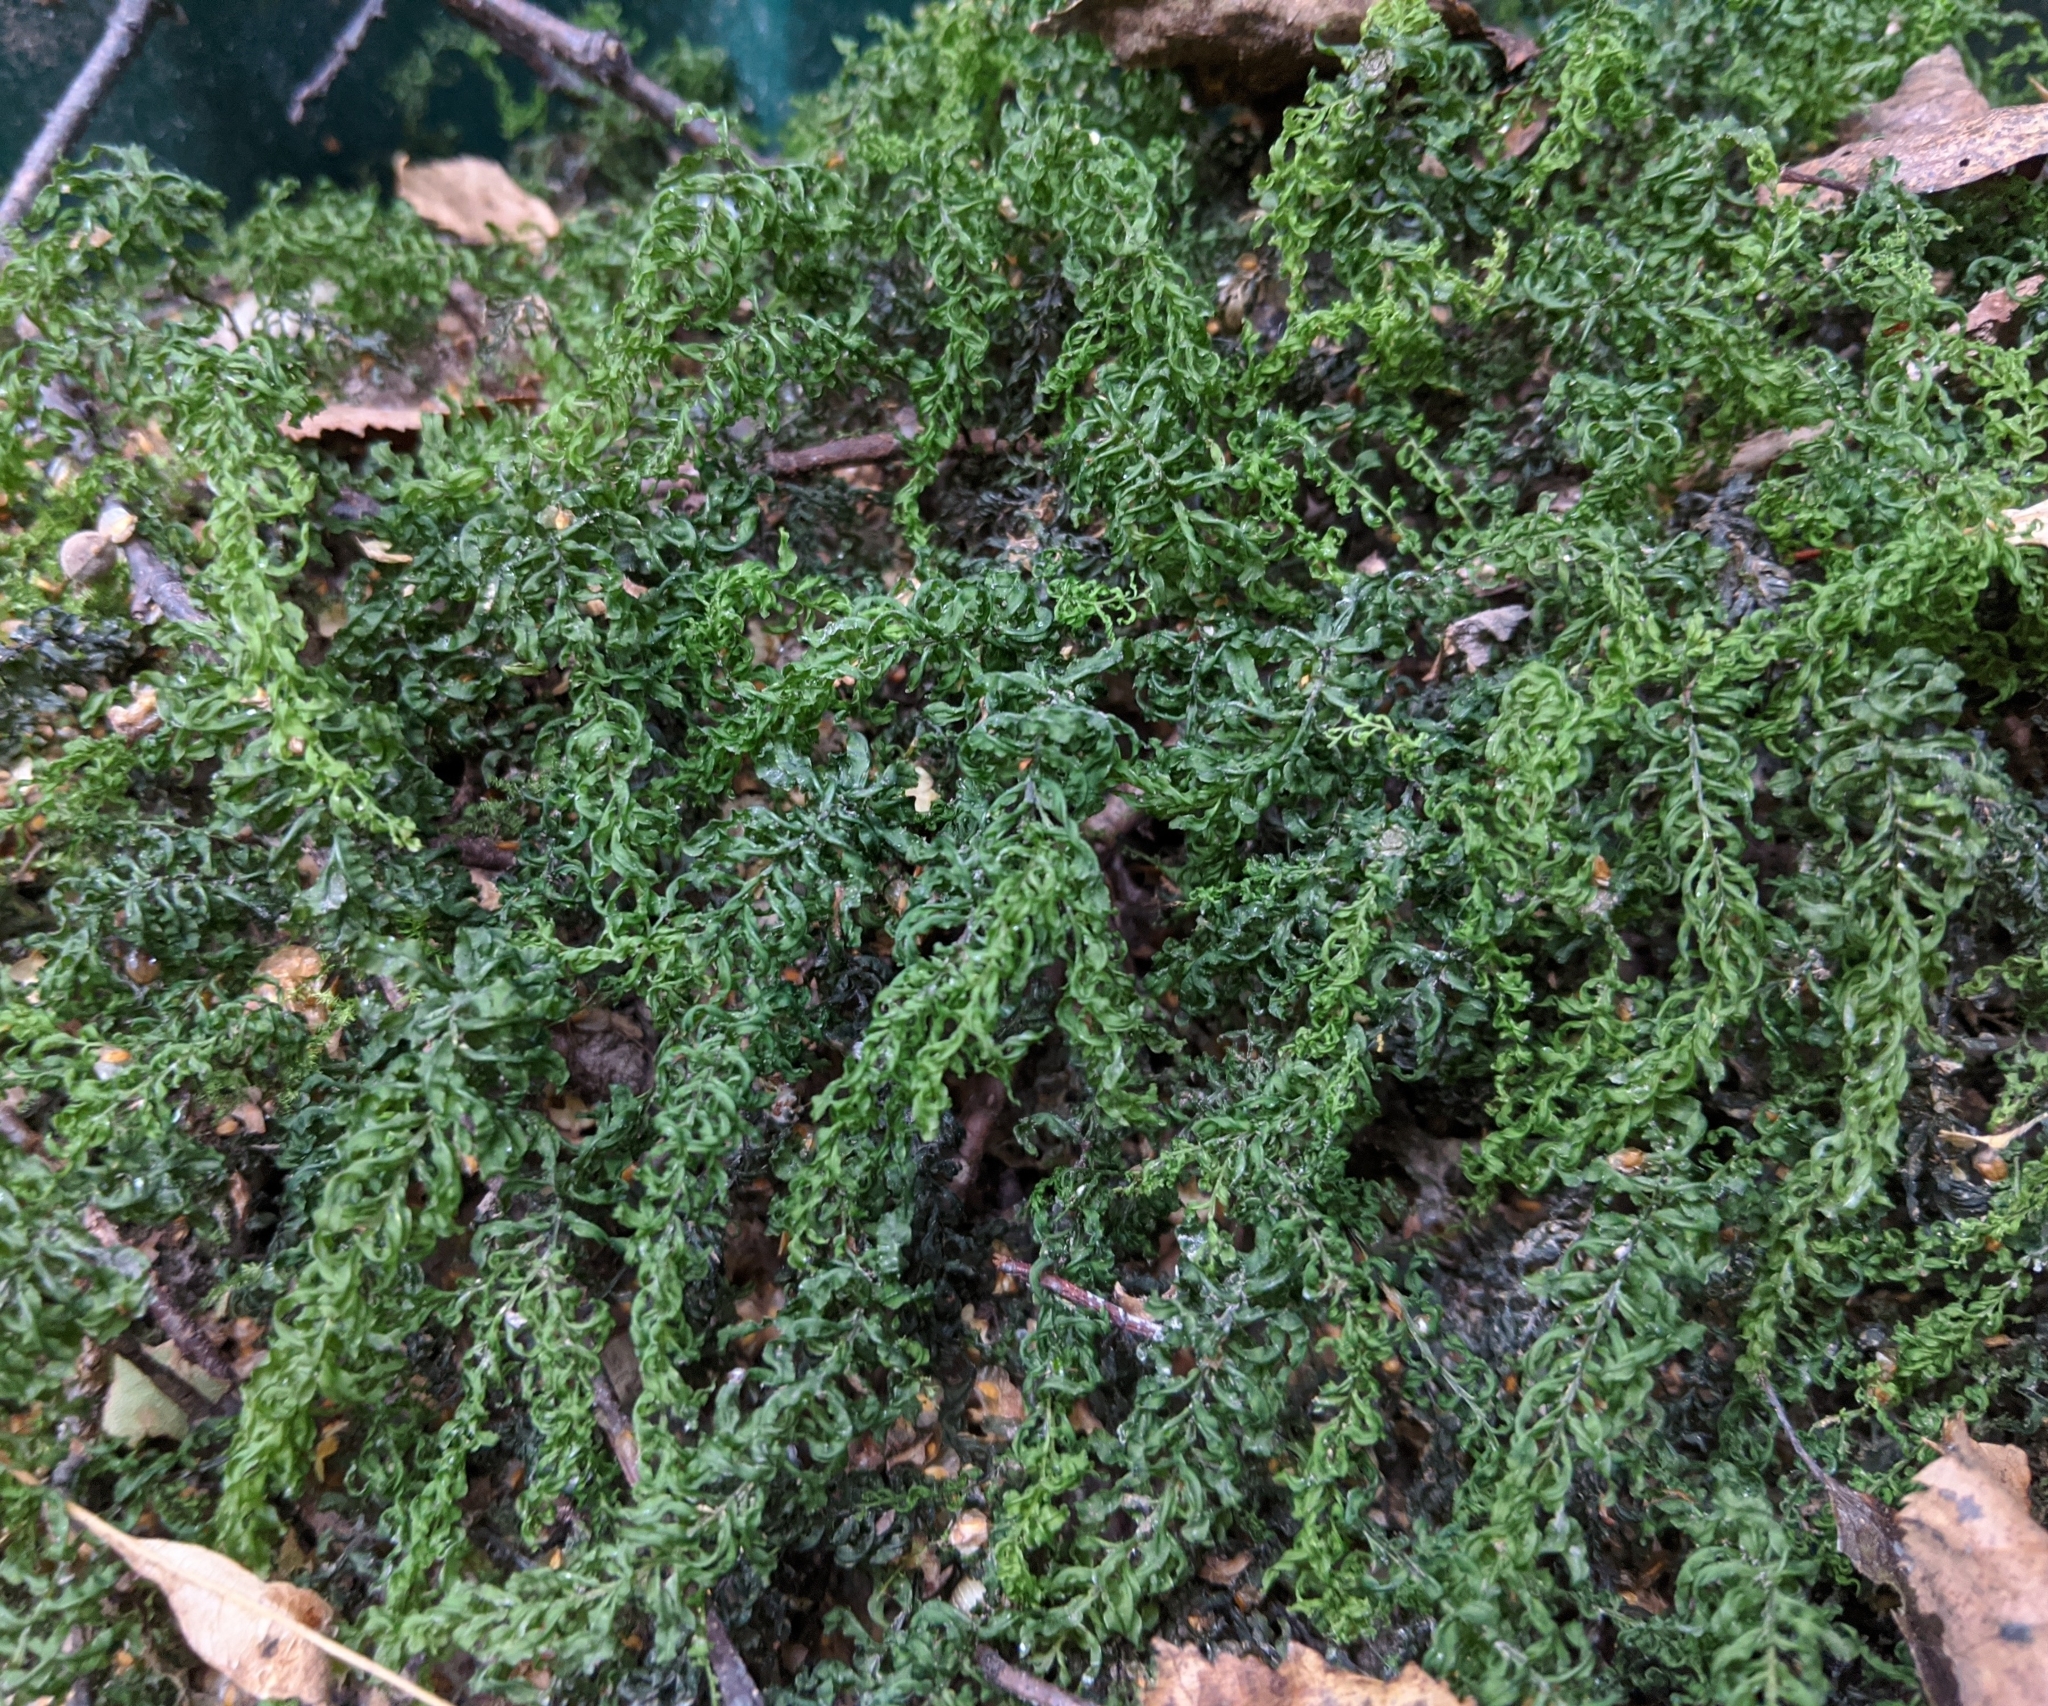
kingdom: Plantae
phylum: Bryophyta
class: Bryopsida
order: Bryales
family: Mniaceae
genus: Plagiomnium
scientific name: Plagiomnium undulatum
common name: Hart's-tongue thyme-moss
